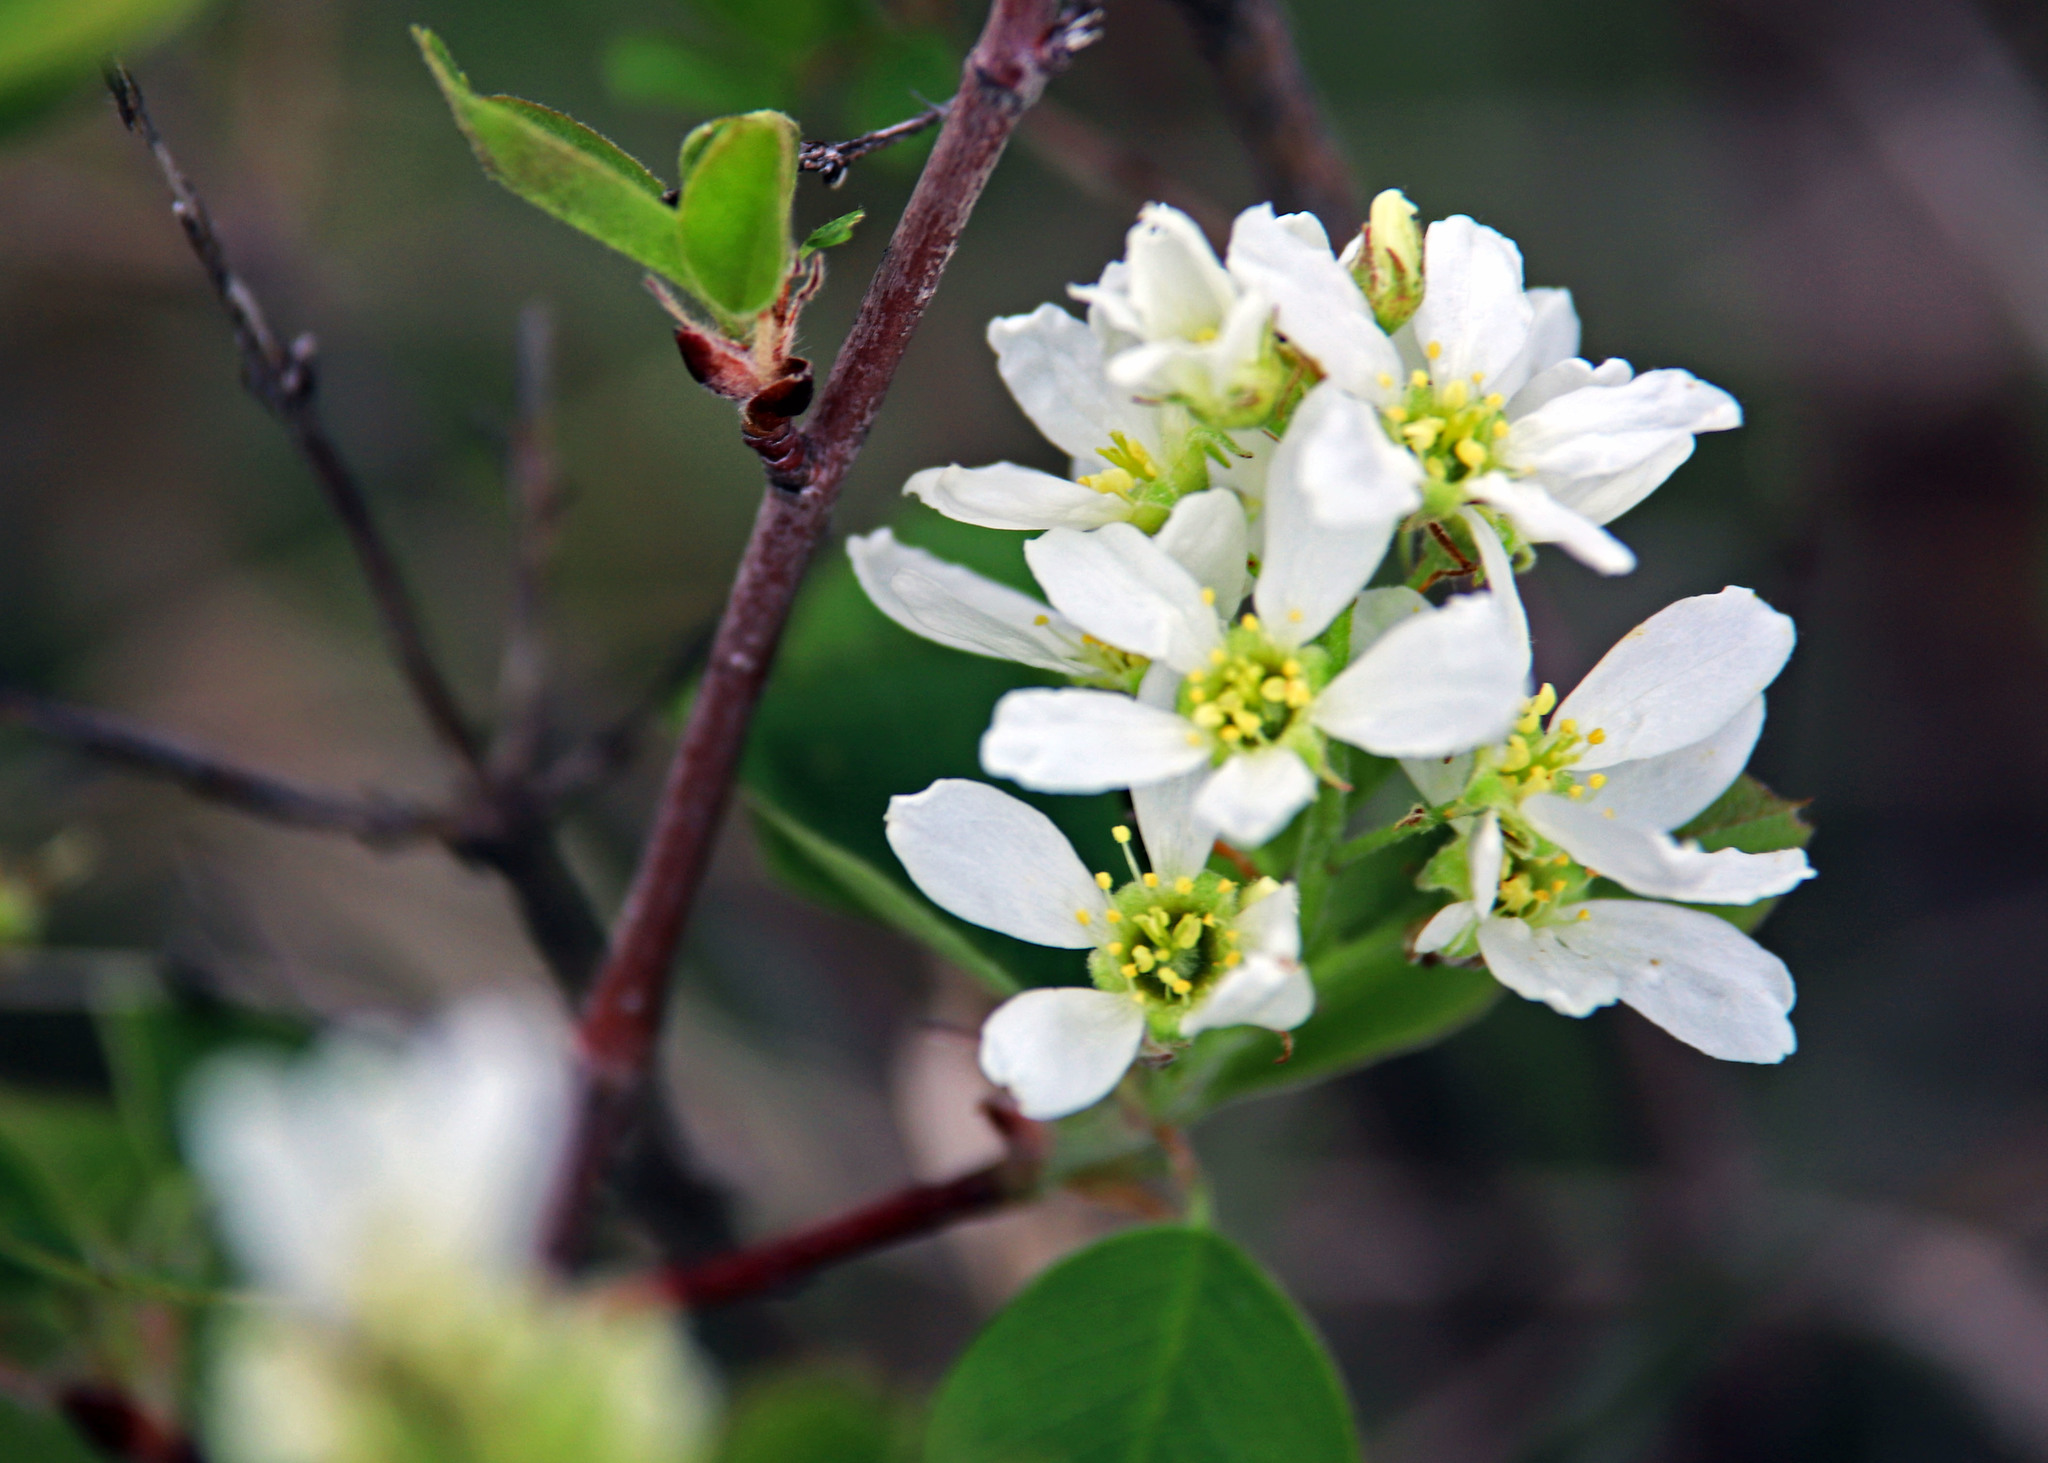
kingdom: Plantae
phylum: Tracheophyta
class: Magnoliopsida
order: Rosales
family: Rosaceae
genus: Amelanchier
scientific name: Amelanchier alnifolia
